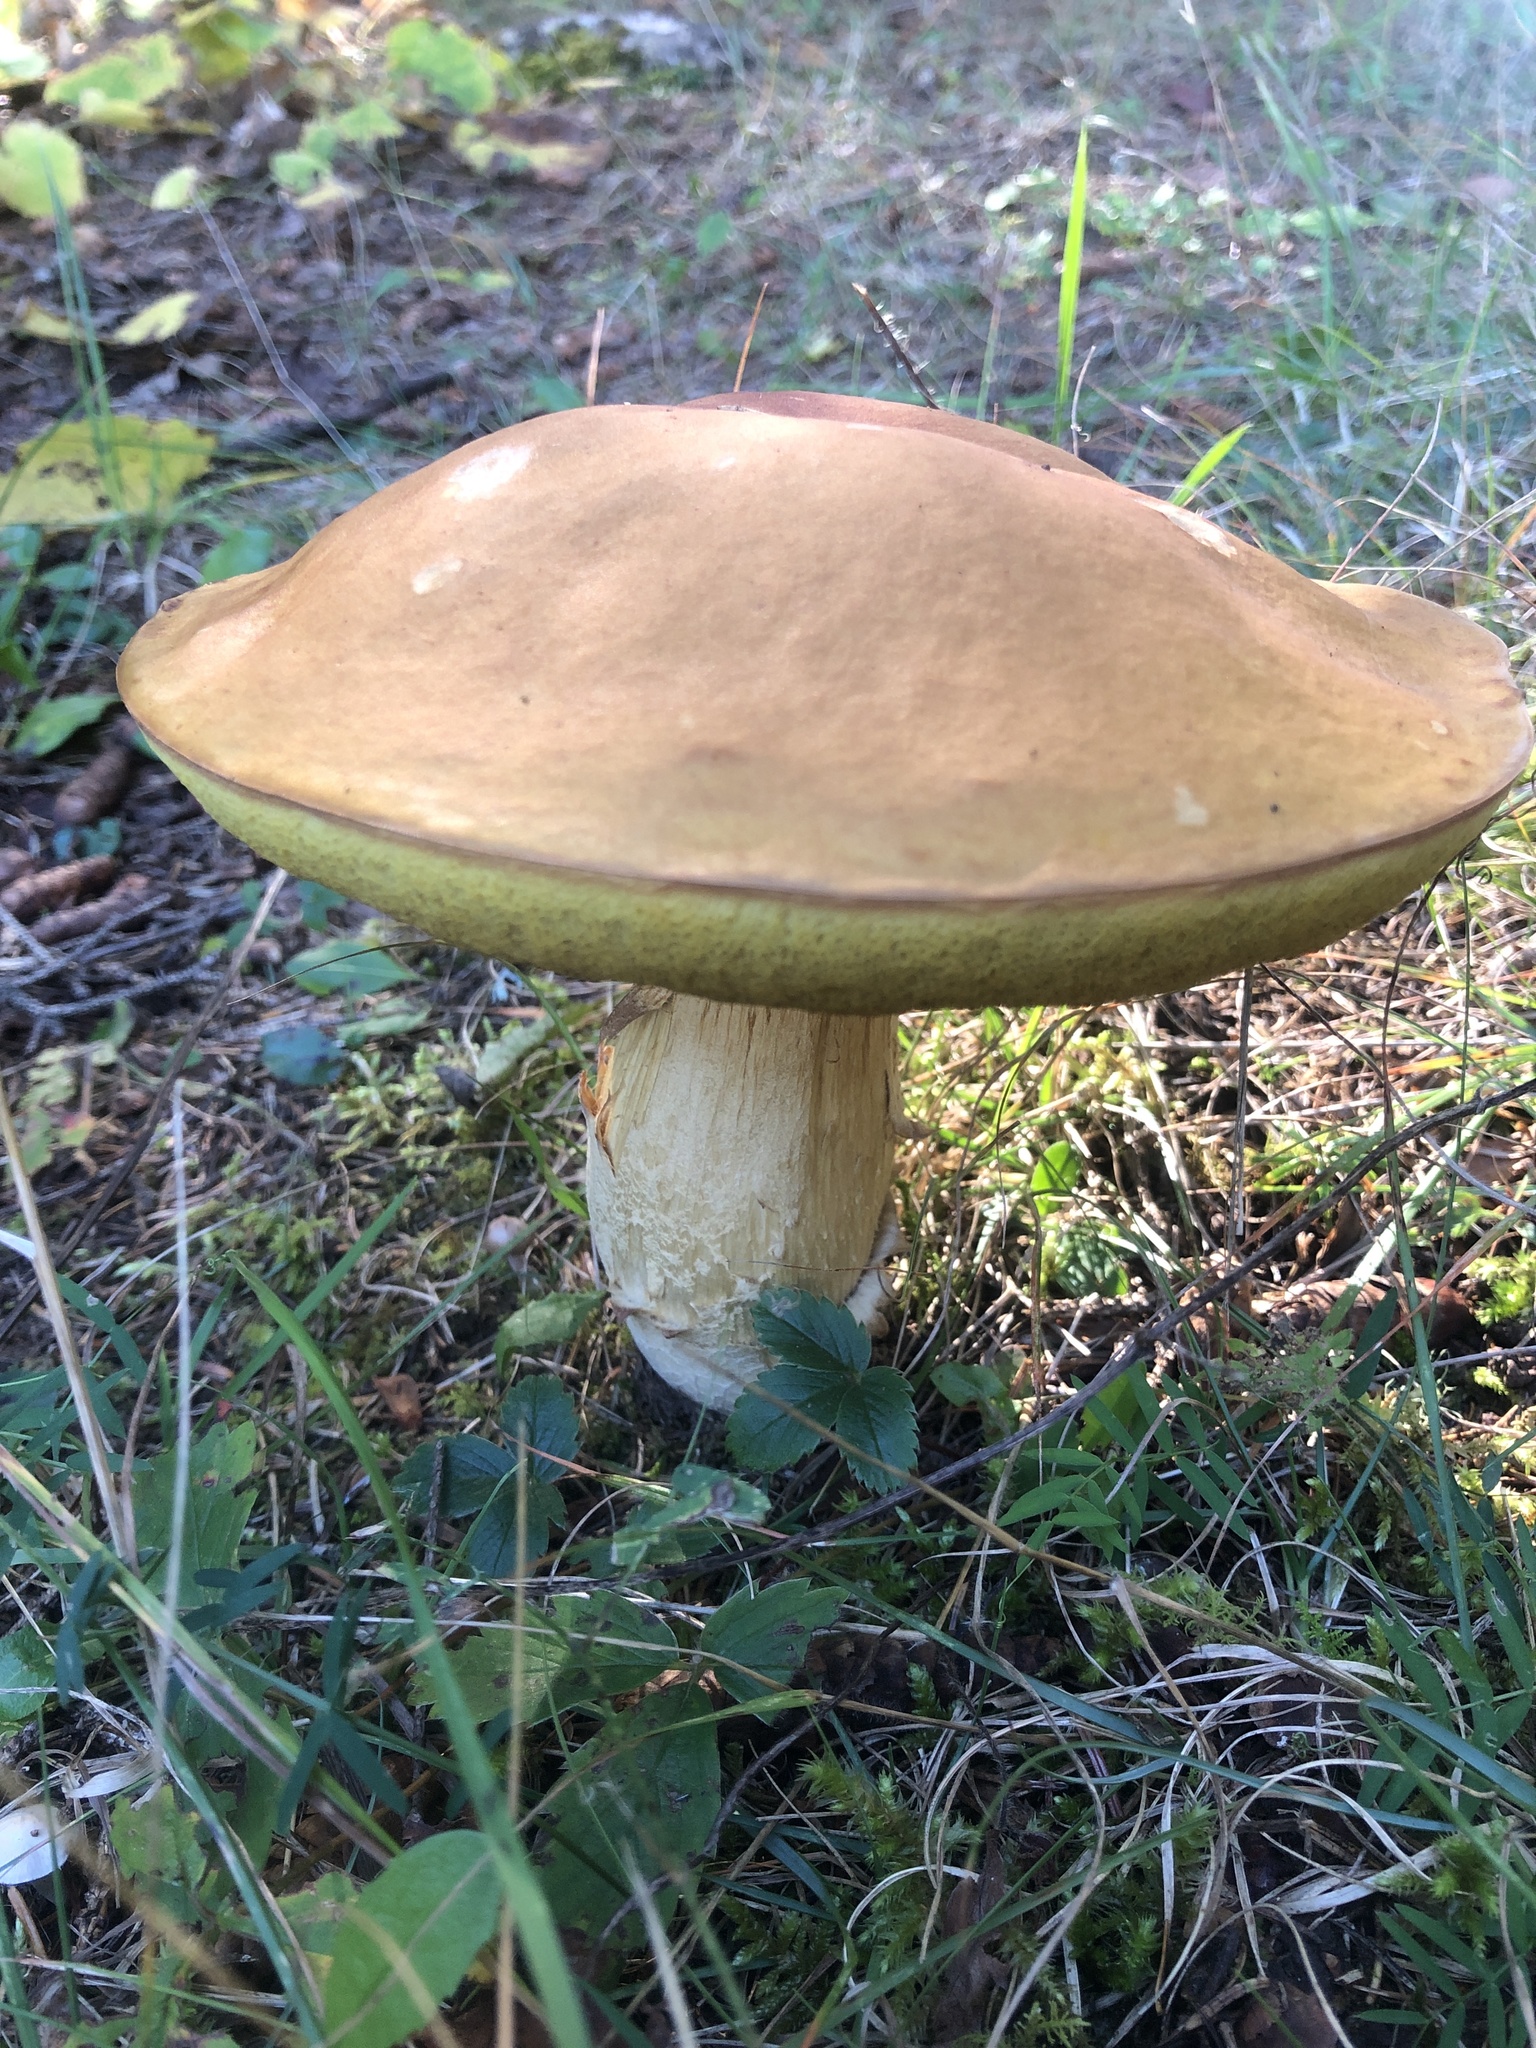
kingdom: Fungi
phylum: Basidiomycota
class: Agaricomycetes
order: Boletales
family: Boletaceae
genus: Boletus
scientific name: Boletus edulis
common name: Cep
